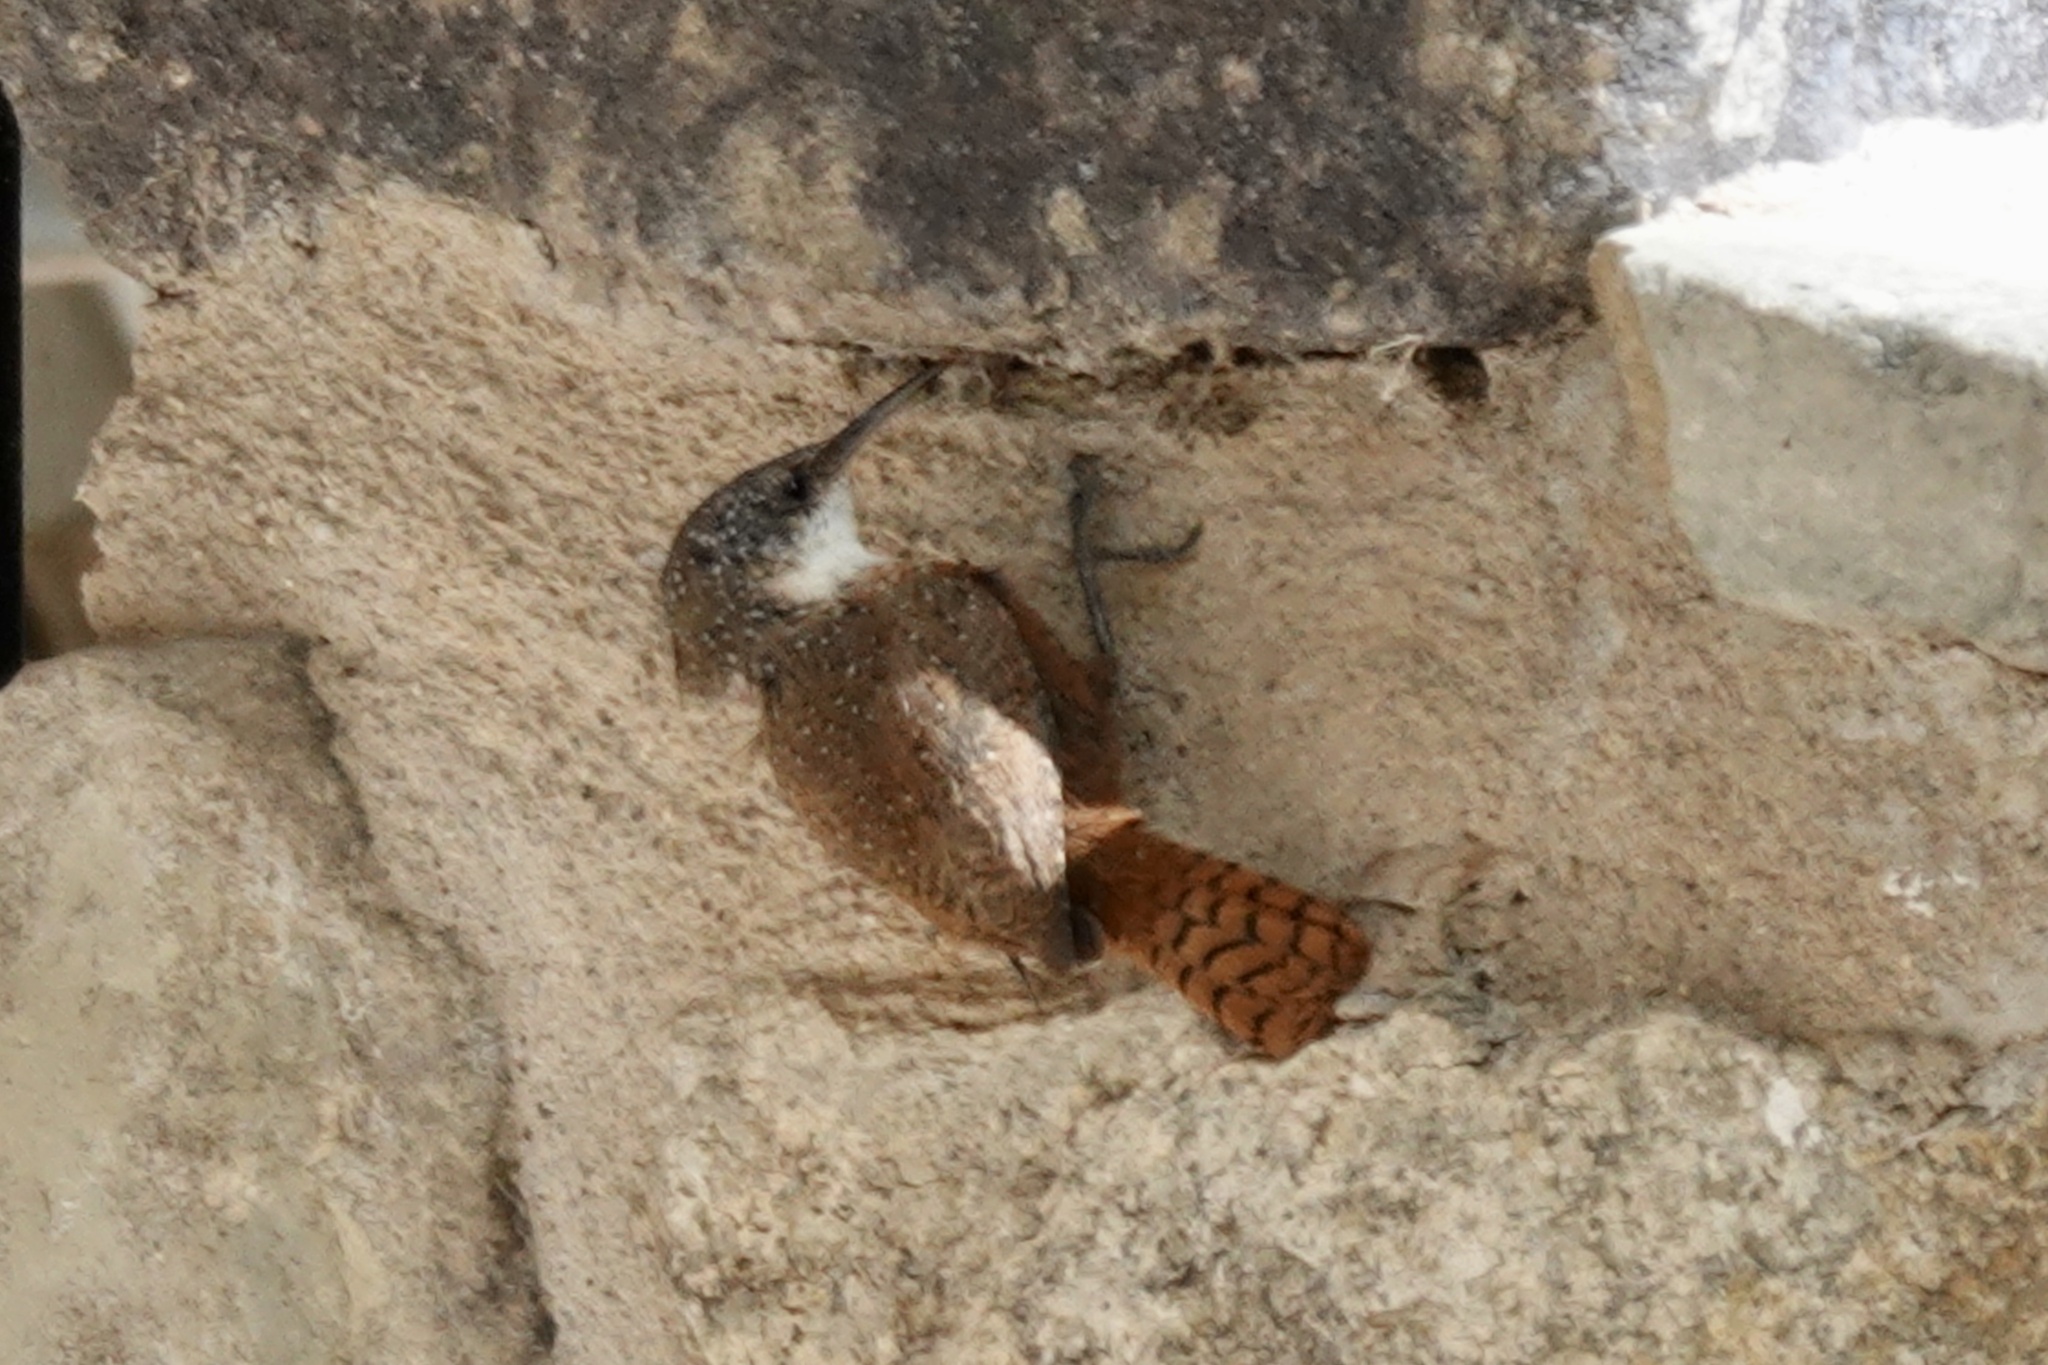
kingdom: Animalia
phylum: Chordata
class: Aves
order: Passeriformes
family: Troglodytidae
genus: Catherpes
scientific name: Catherpes mexicanus
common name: Canyon wren
